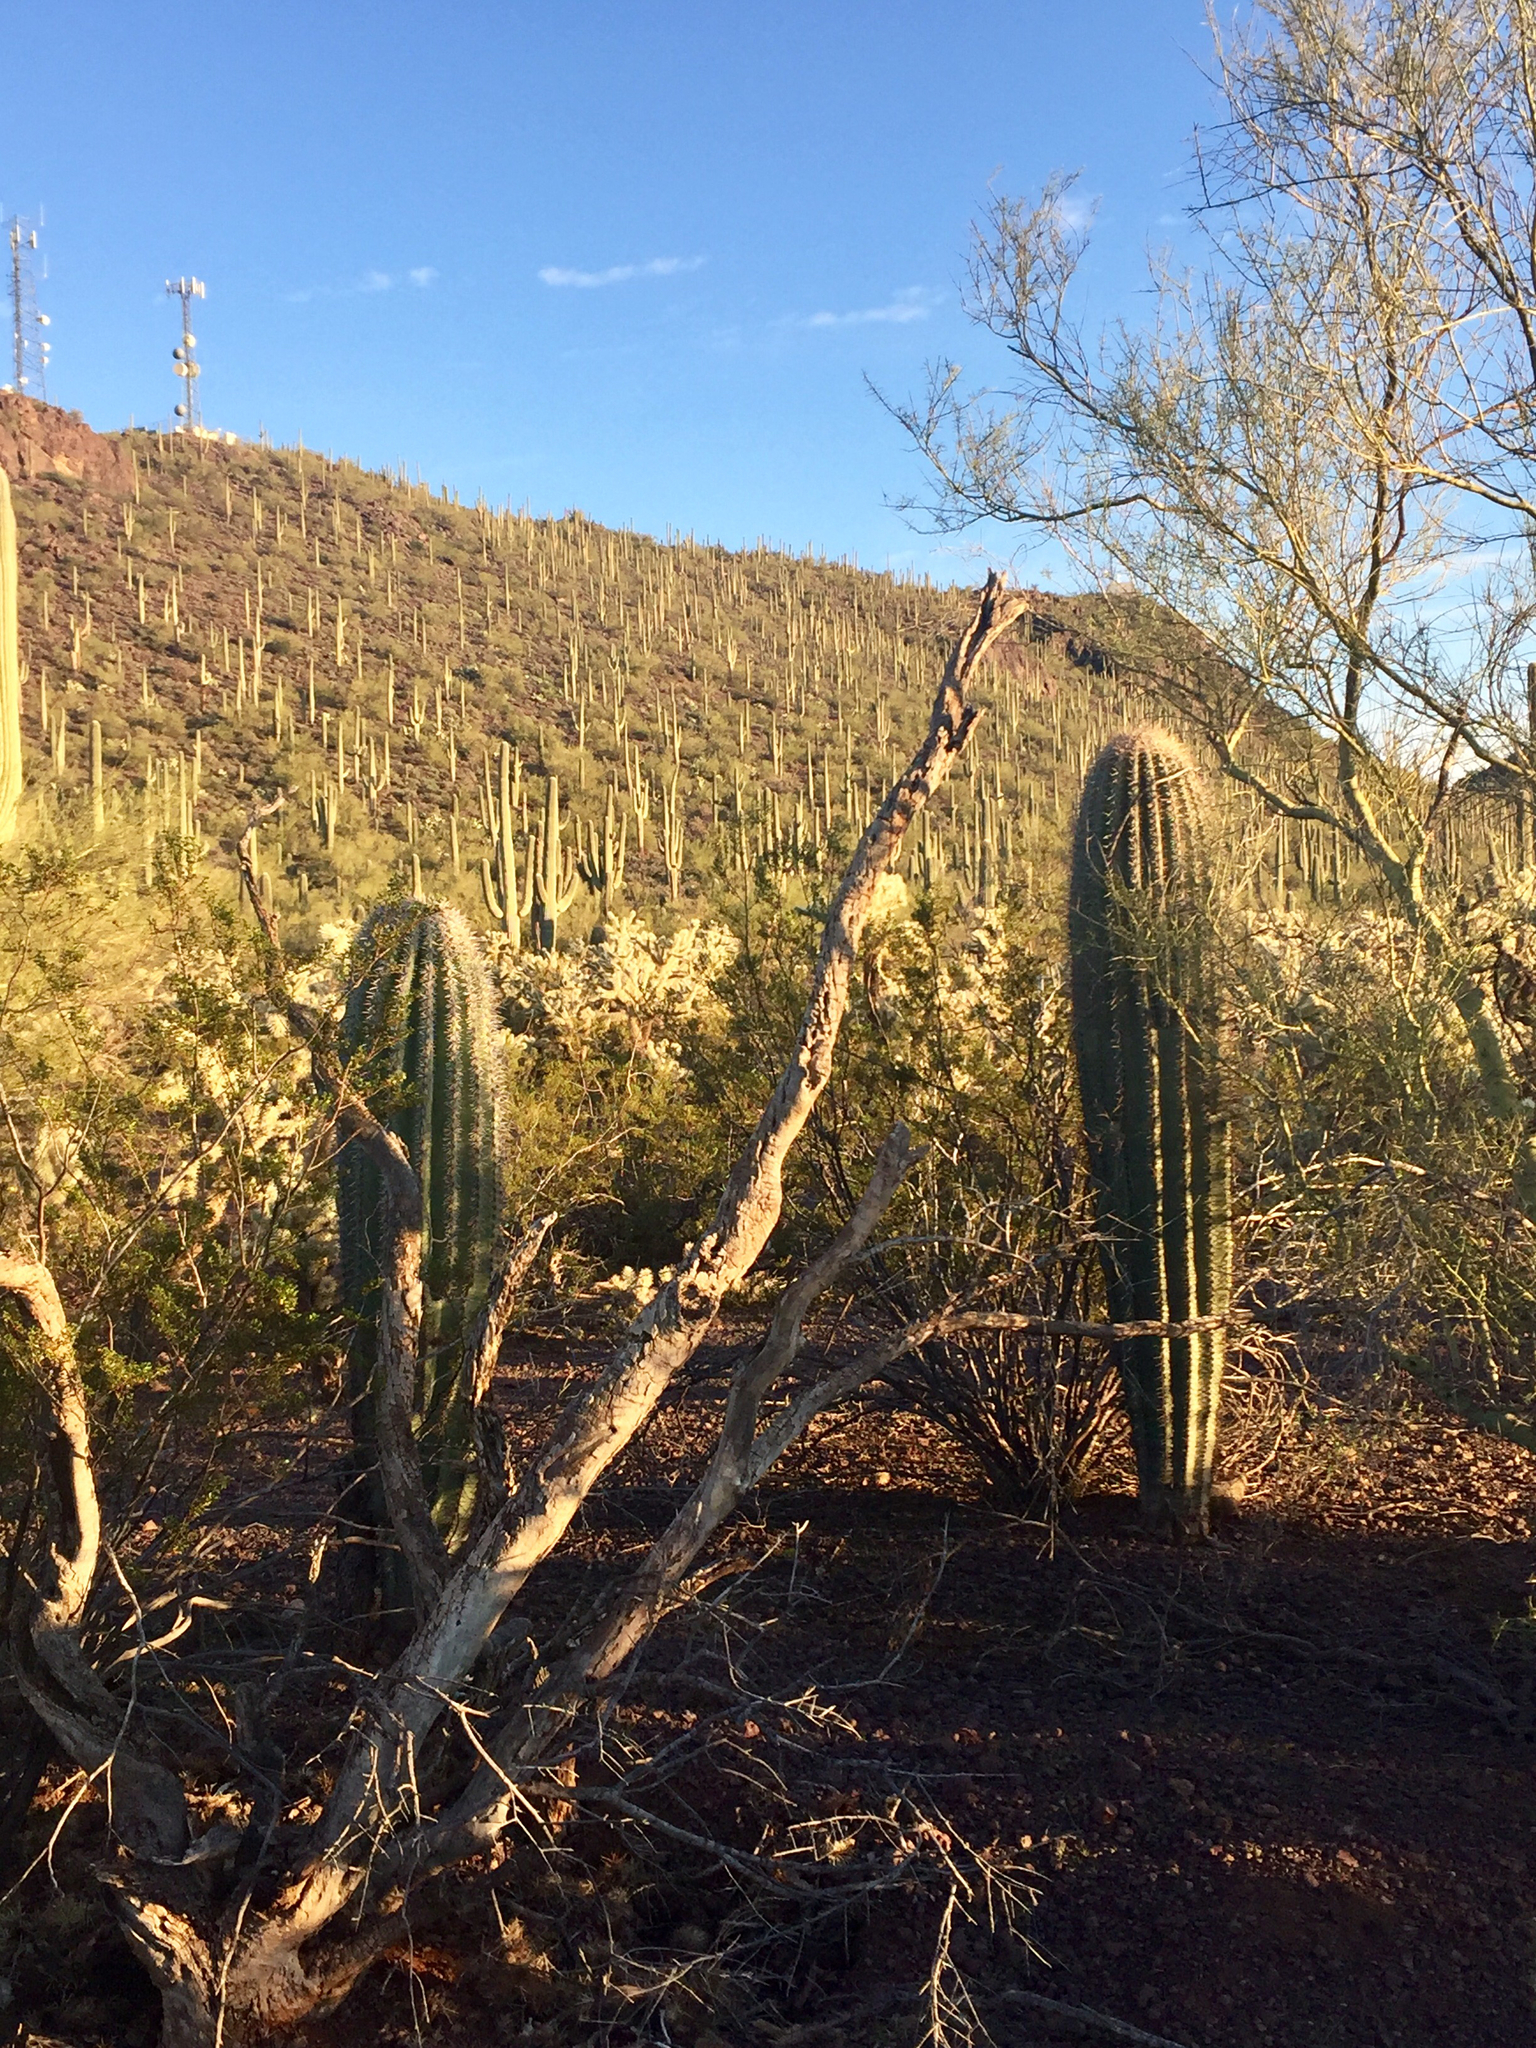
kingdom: Plantae
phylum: Tracheophyta
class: Magnoliopsida
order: Caryophyllales
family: Cactaceae
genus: Carnegiea
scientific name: Carnegiea gigantea
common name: Saguaro
